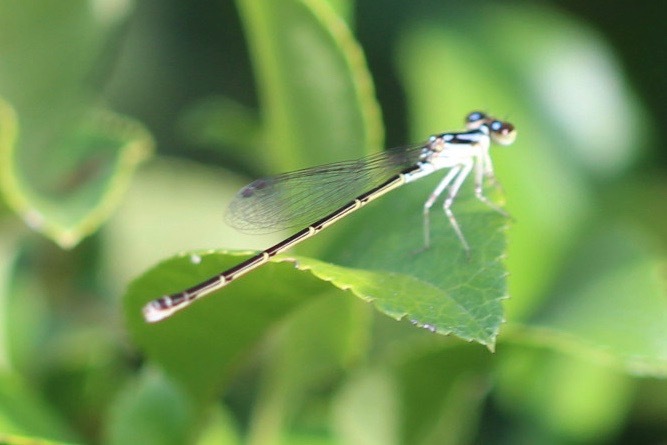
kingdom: Animalia
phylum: Arthropoda
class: Insecta
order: Odonata
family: Coenagrionidae
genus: Ischnura
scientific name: Ischnura posita
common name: Fragile forktail
